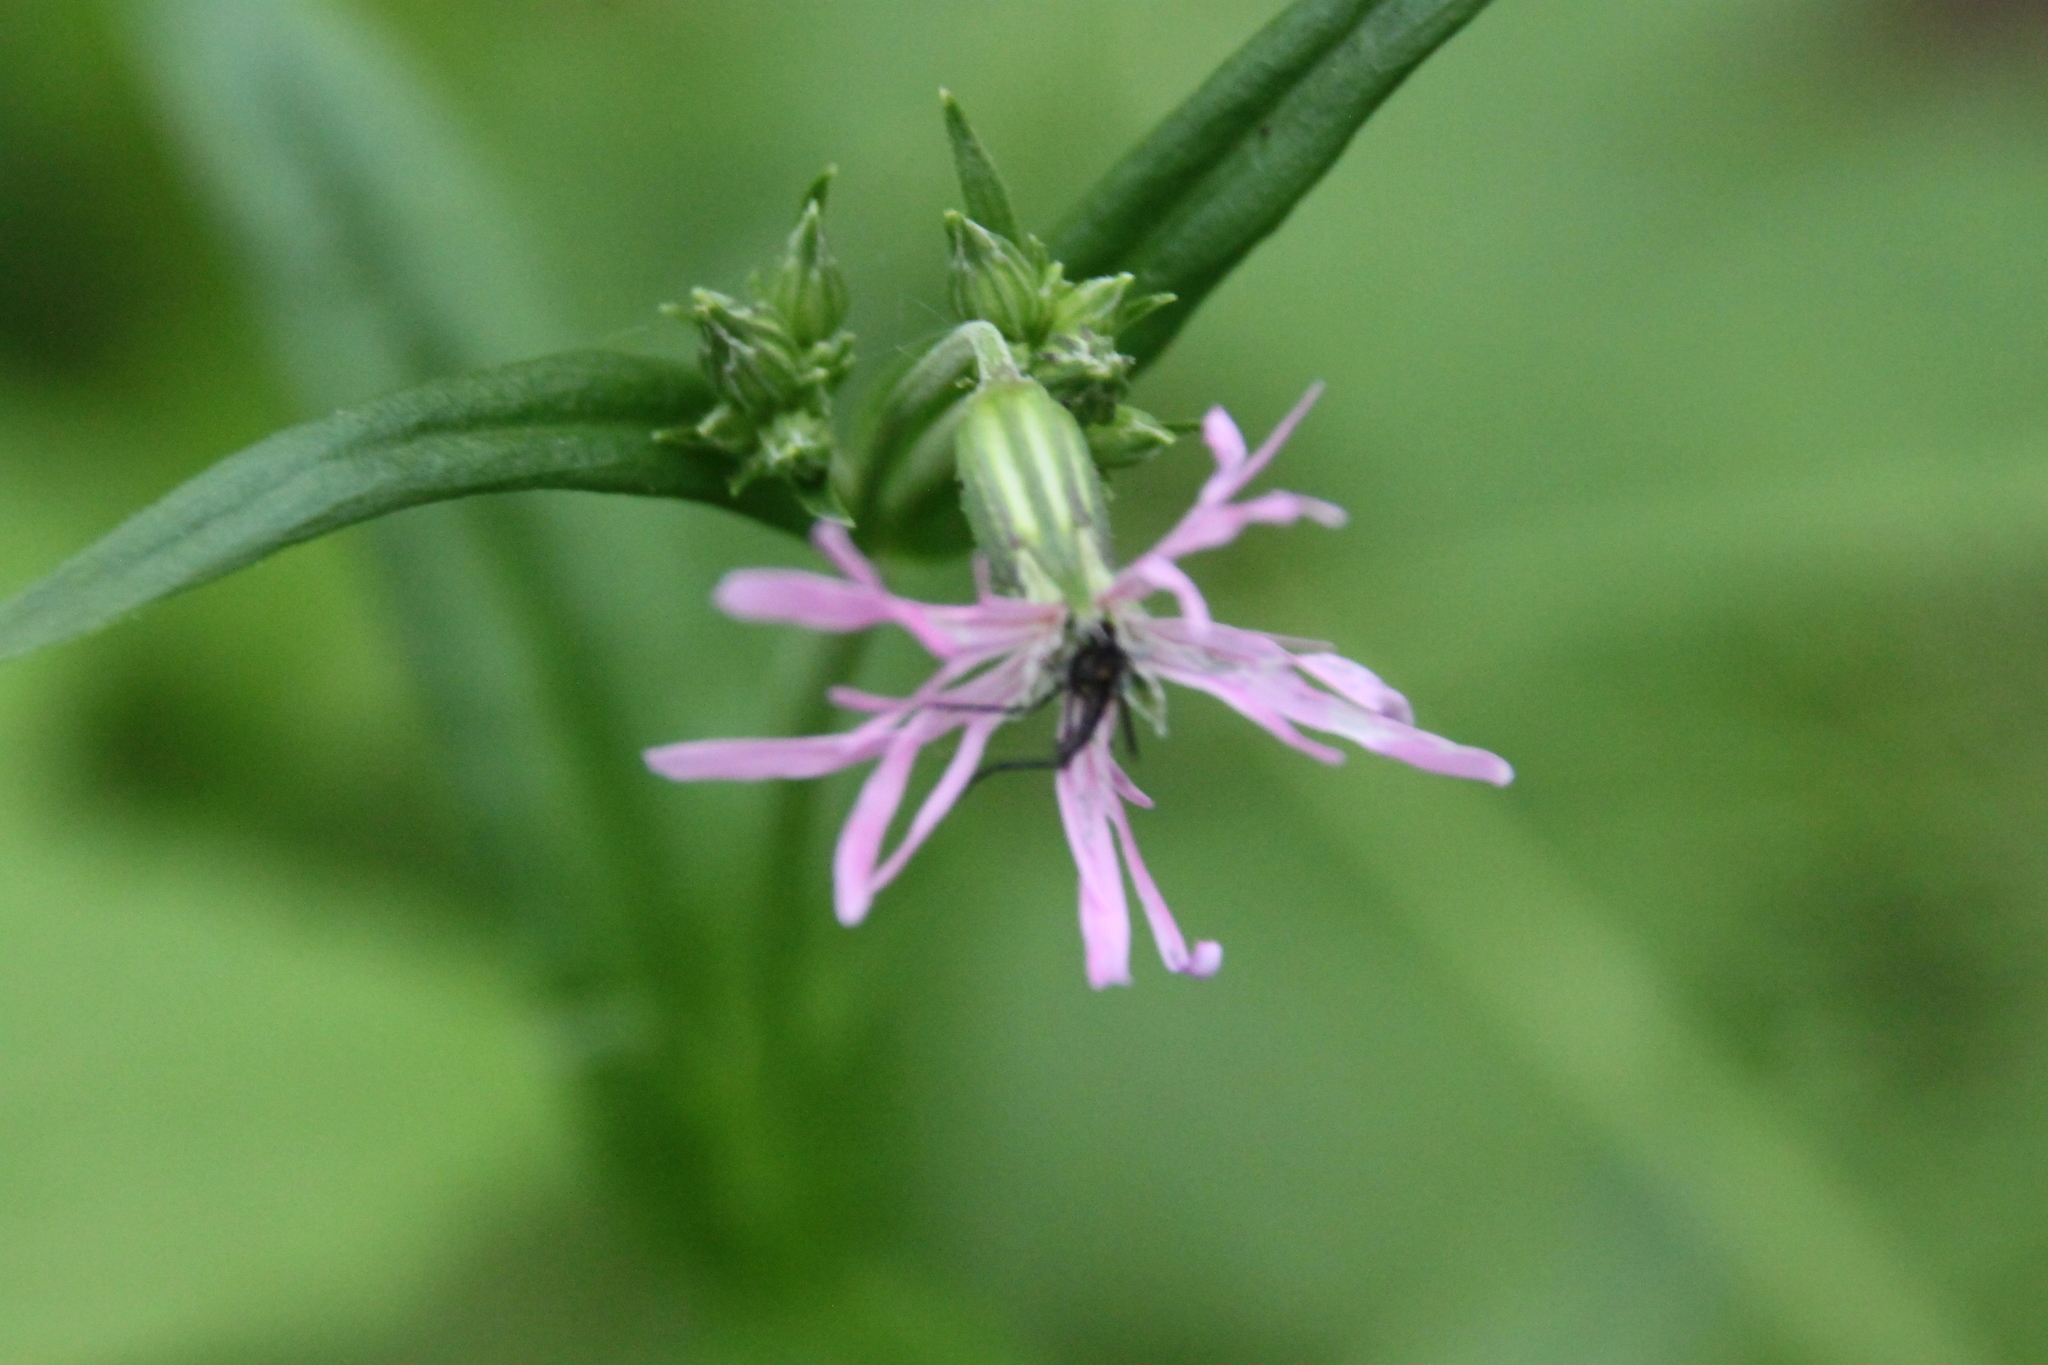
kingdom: Plantae
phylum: Tracheophyta
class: Magnoliopsida
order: Caryophyllales
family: Caryophyllaceae
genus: Silene
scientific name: Silene flos-cuculi
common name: Ragged-robin
